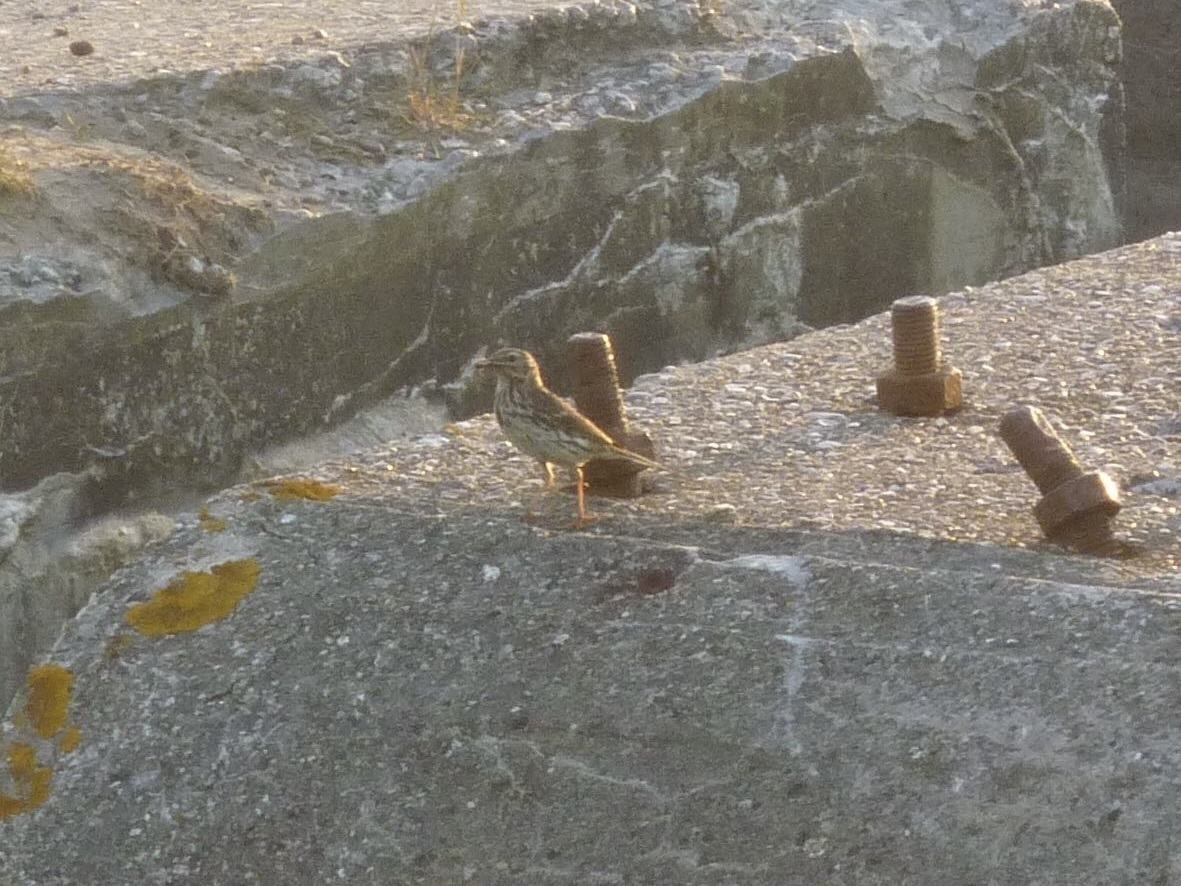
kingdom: Animalia
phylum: Chordata
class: Aves
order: Passeriformes
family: Motacillidae
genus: Anthus
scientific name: Anthus pratensis
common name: Meadow pipit
